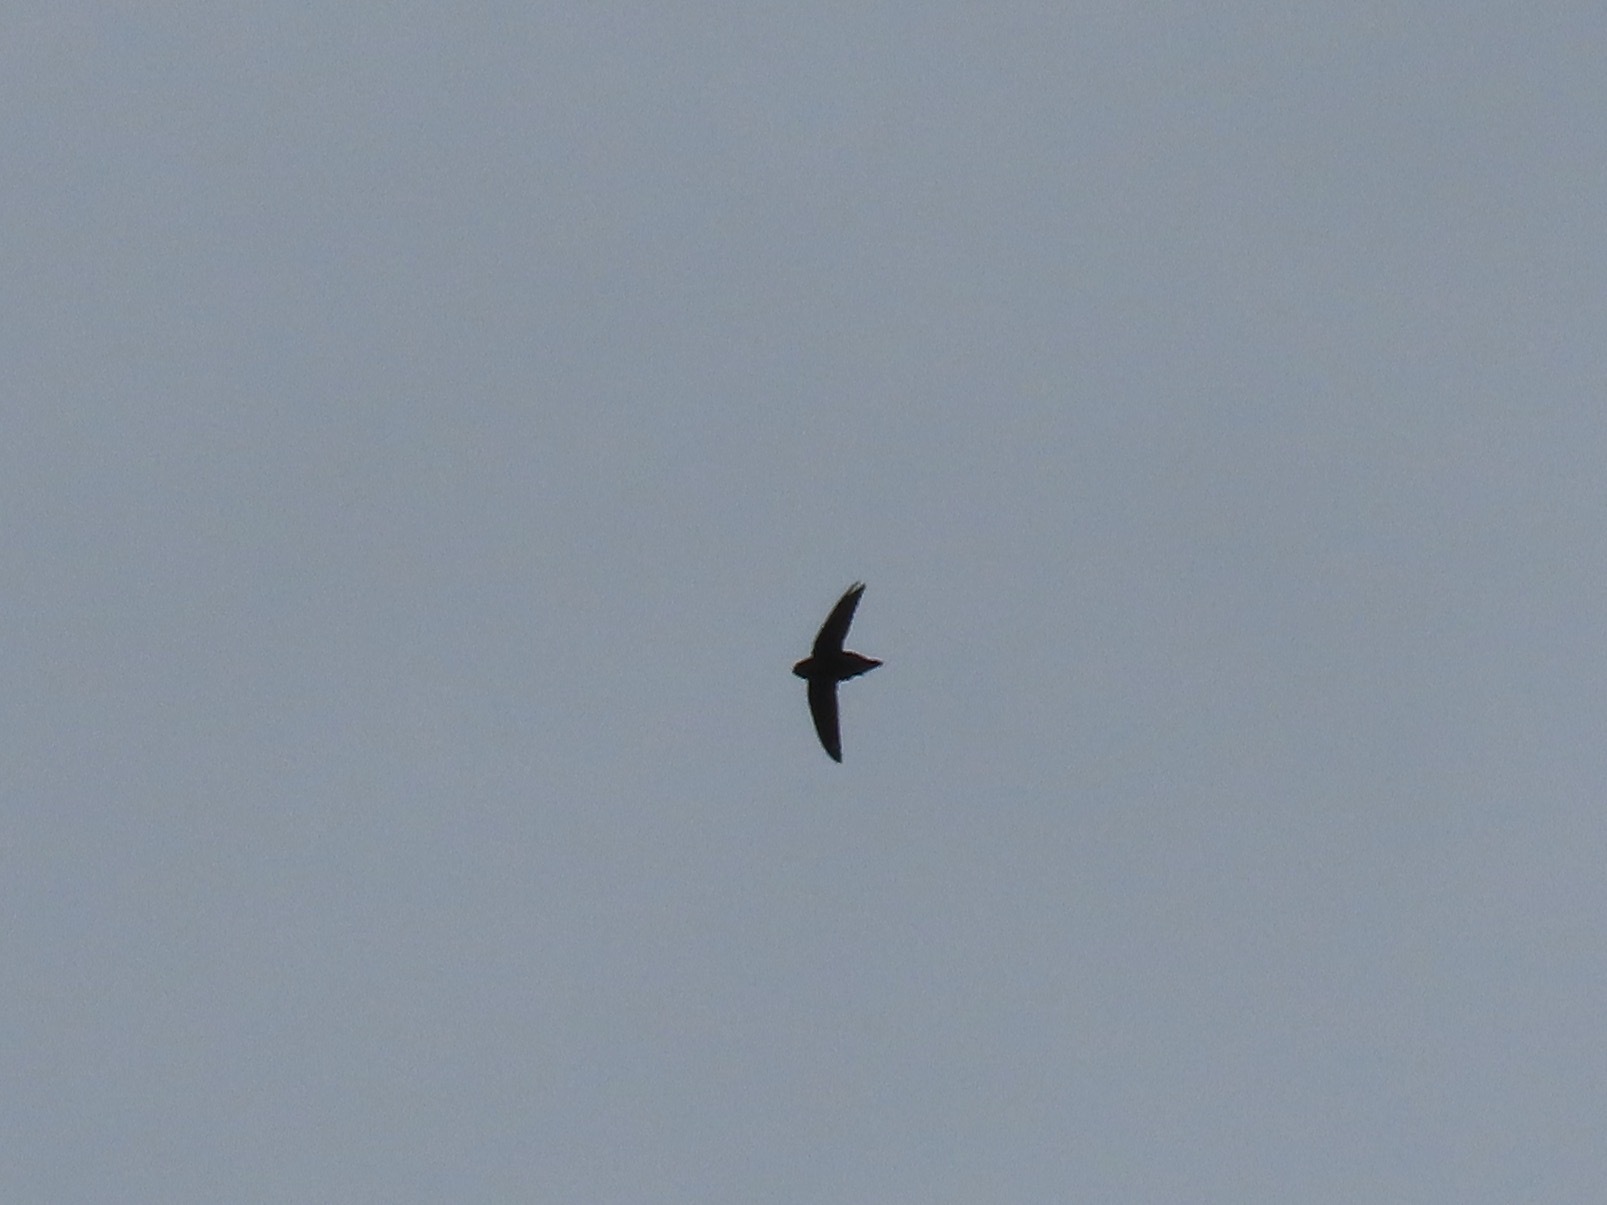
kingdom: Animalia
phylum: Chordata
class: Aves
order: Apodiformes
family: Apodidae
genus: Chaetura
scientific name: Chaetura vauxi
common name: Vaux's swift
